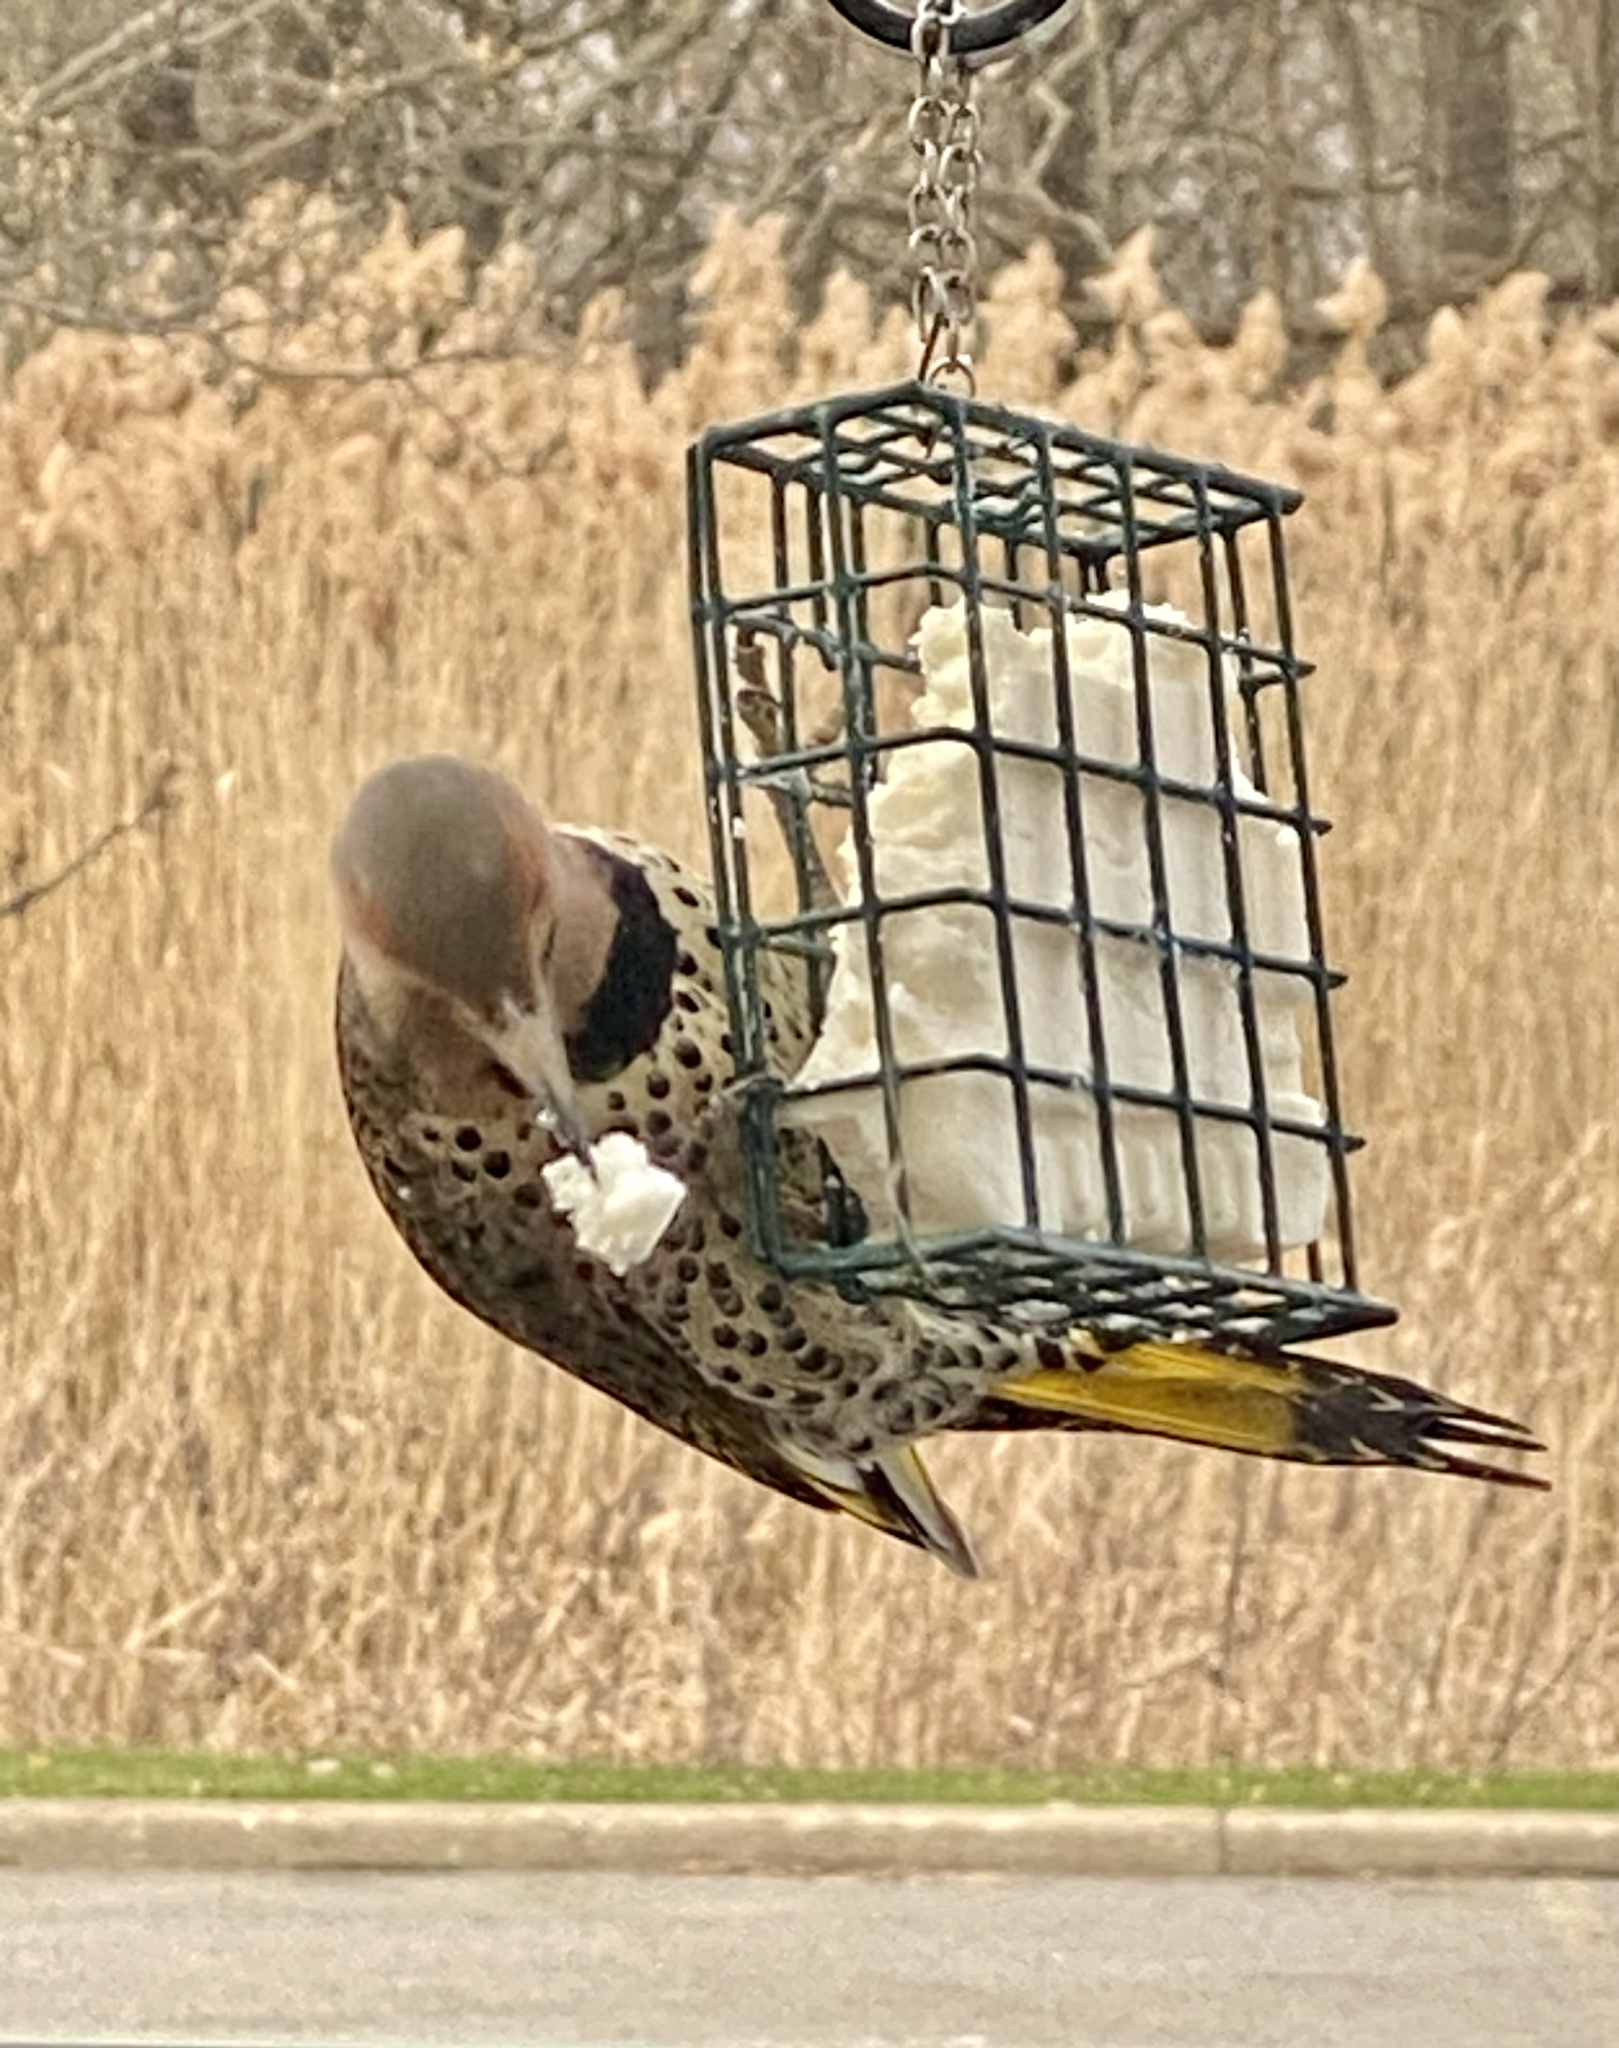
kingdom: Animalia
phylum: Chordata
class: Aves
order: Piciformes
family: Picidae
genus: Colaptes
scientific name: Colaptes auratus
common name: Northern flicker
